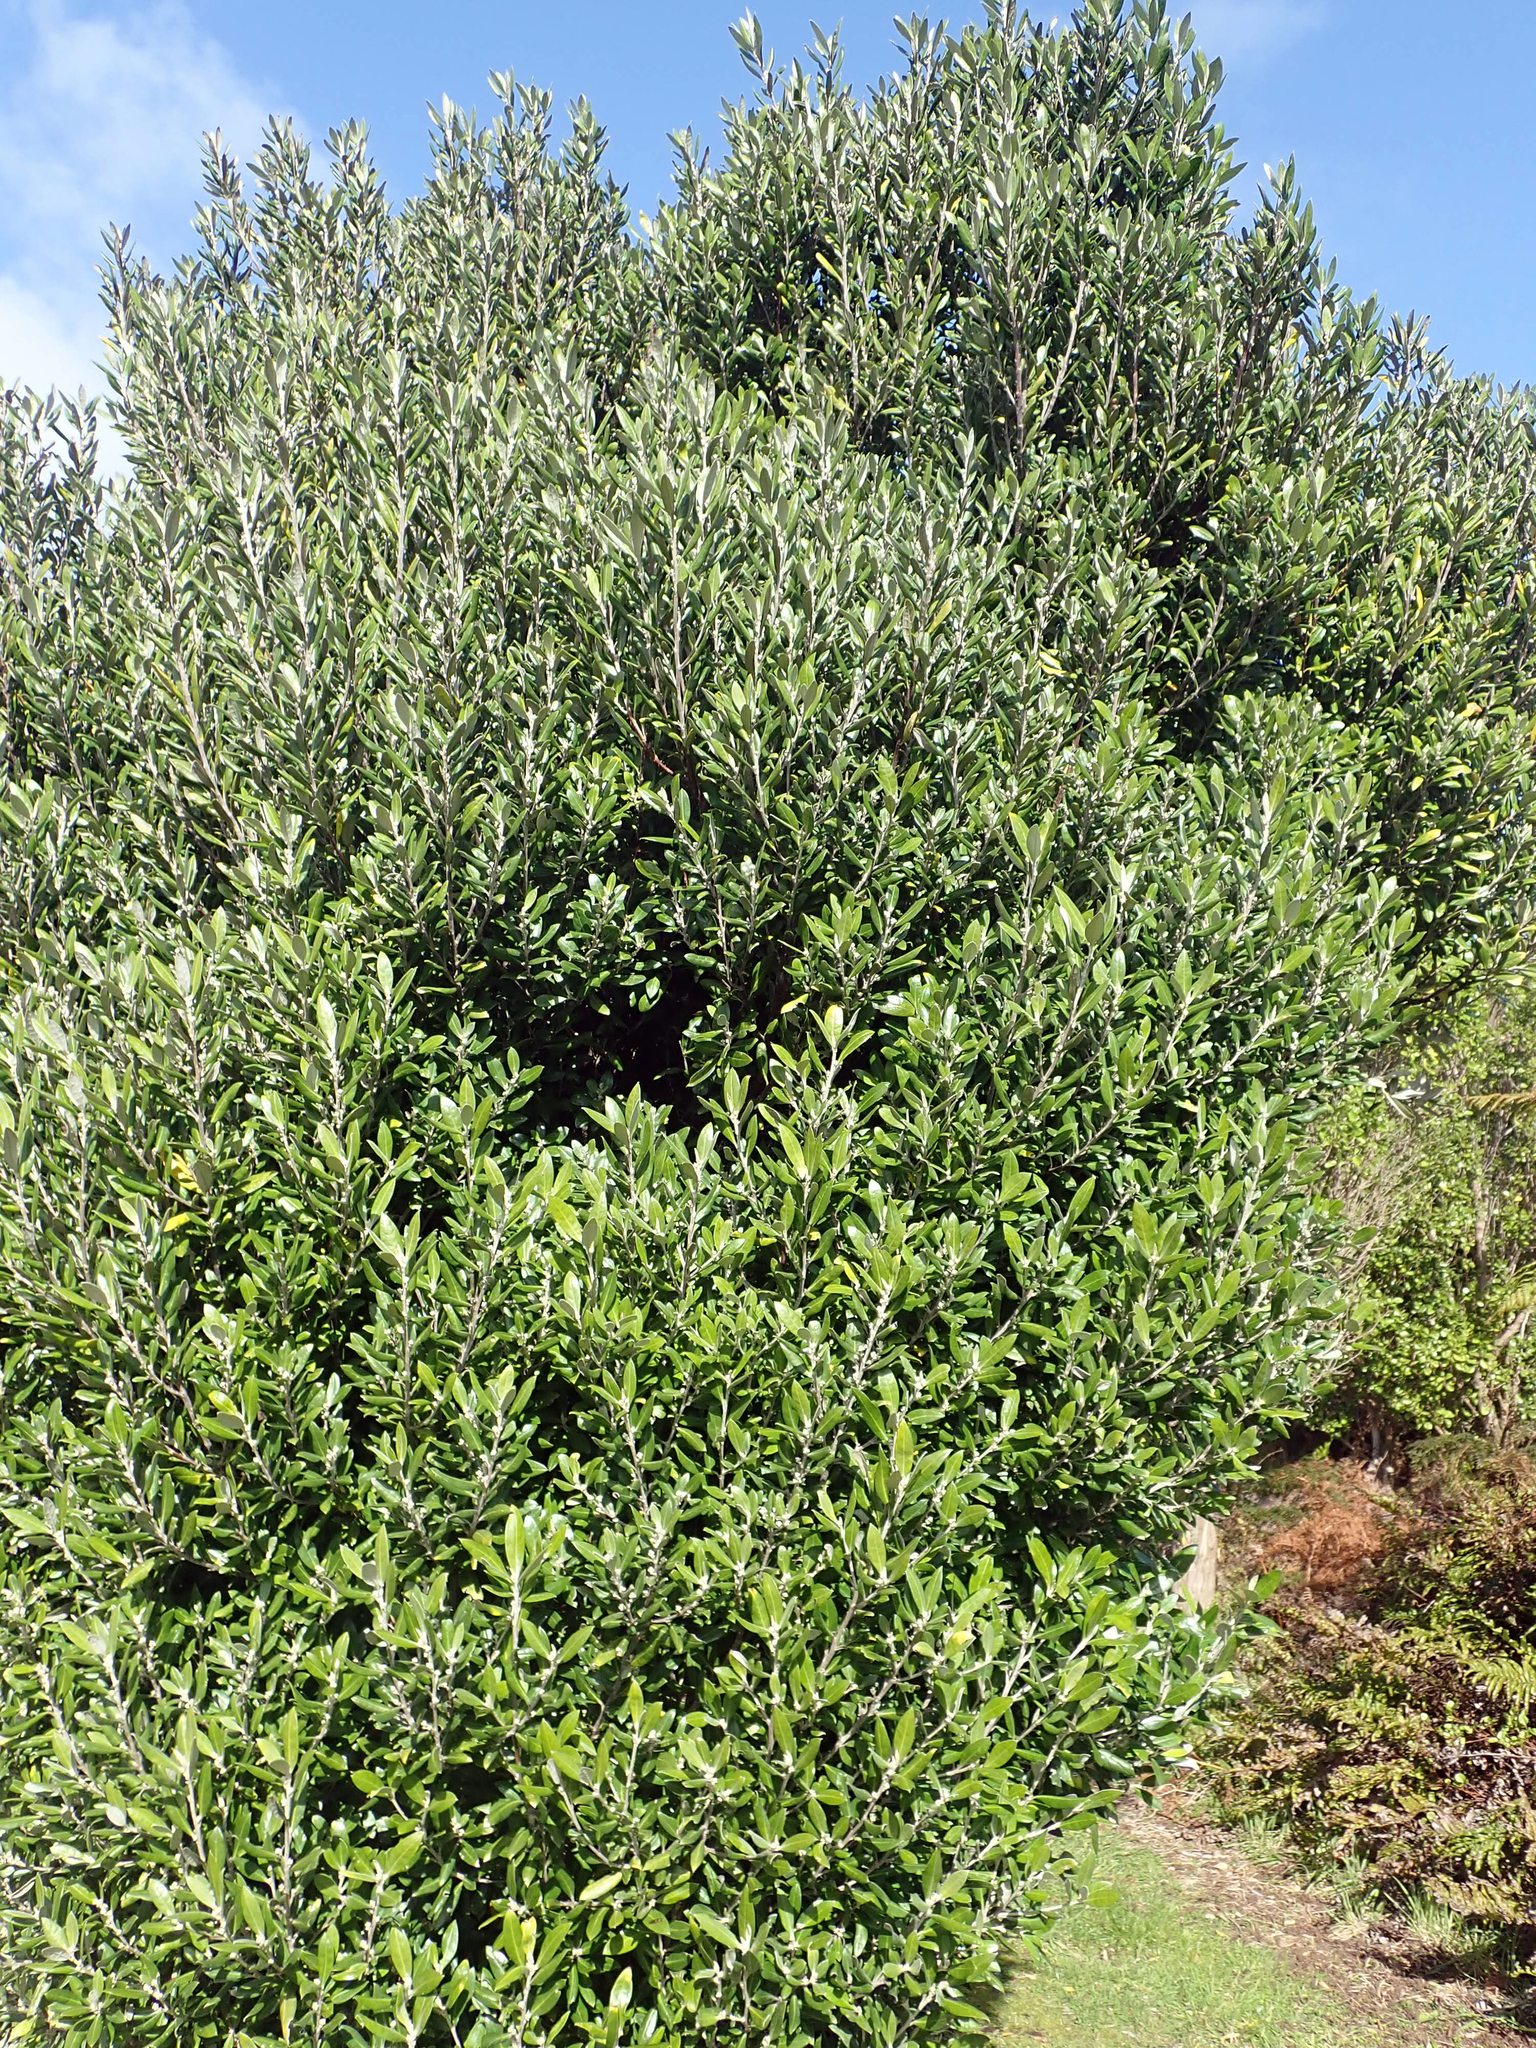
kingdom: Plantae
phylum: Tracheophyta
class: Magnoliopsida
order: Asterales
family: Argophyllaceae
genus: Corokia
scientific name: Corokia macrocarpa
